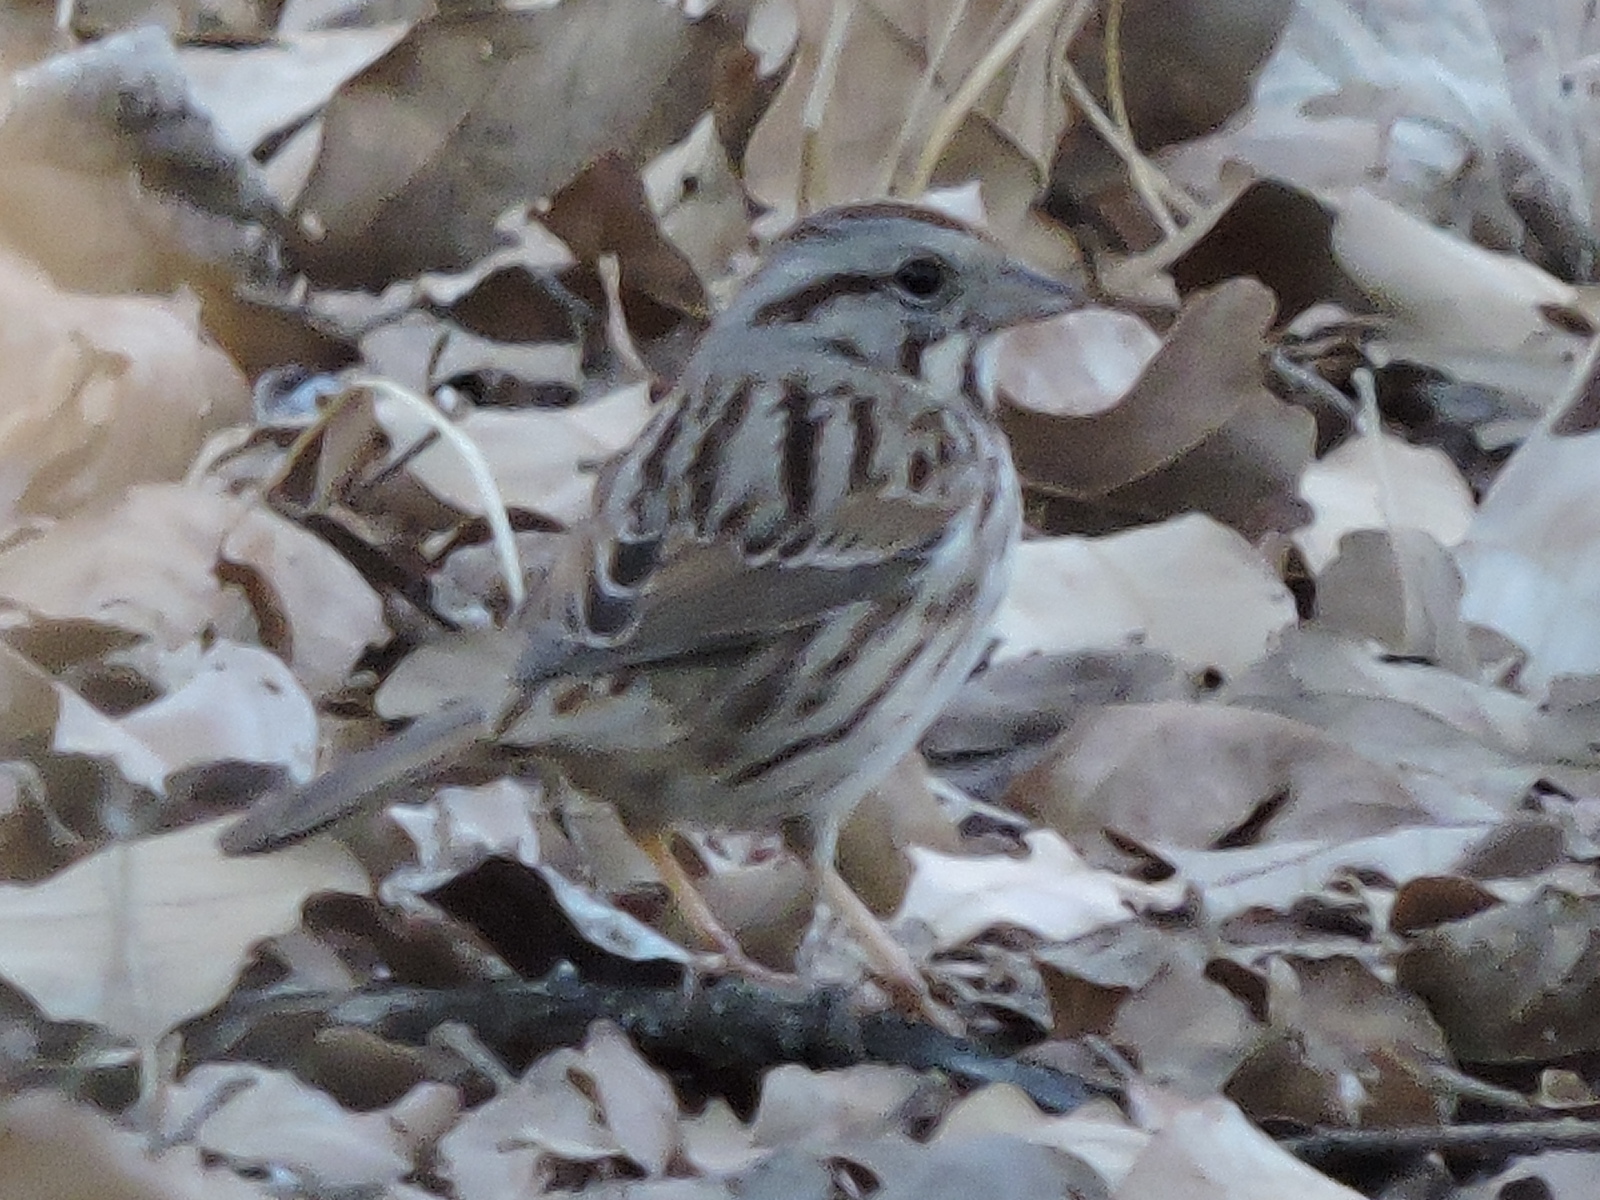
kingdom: Animalia
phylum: Chordata
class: Aves
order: Passeriformes
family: Passerellidae
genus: Melospiza
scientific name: Melospiza melodia
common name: Song sparrow
